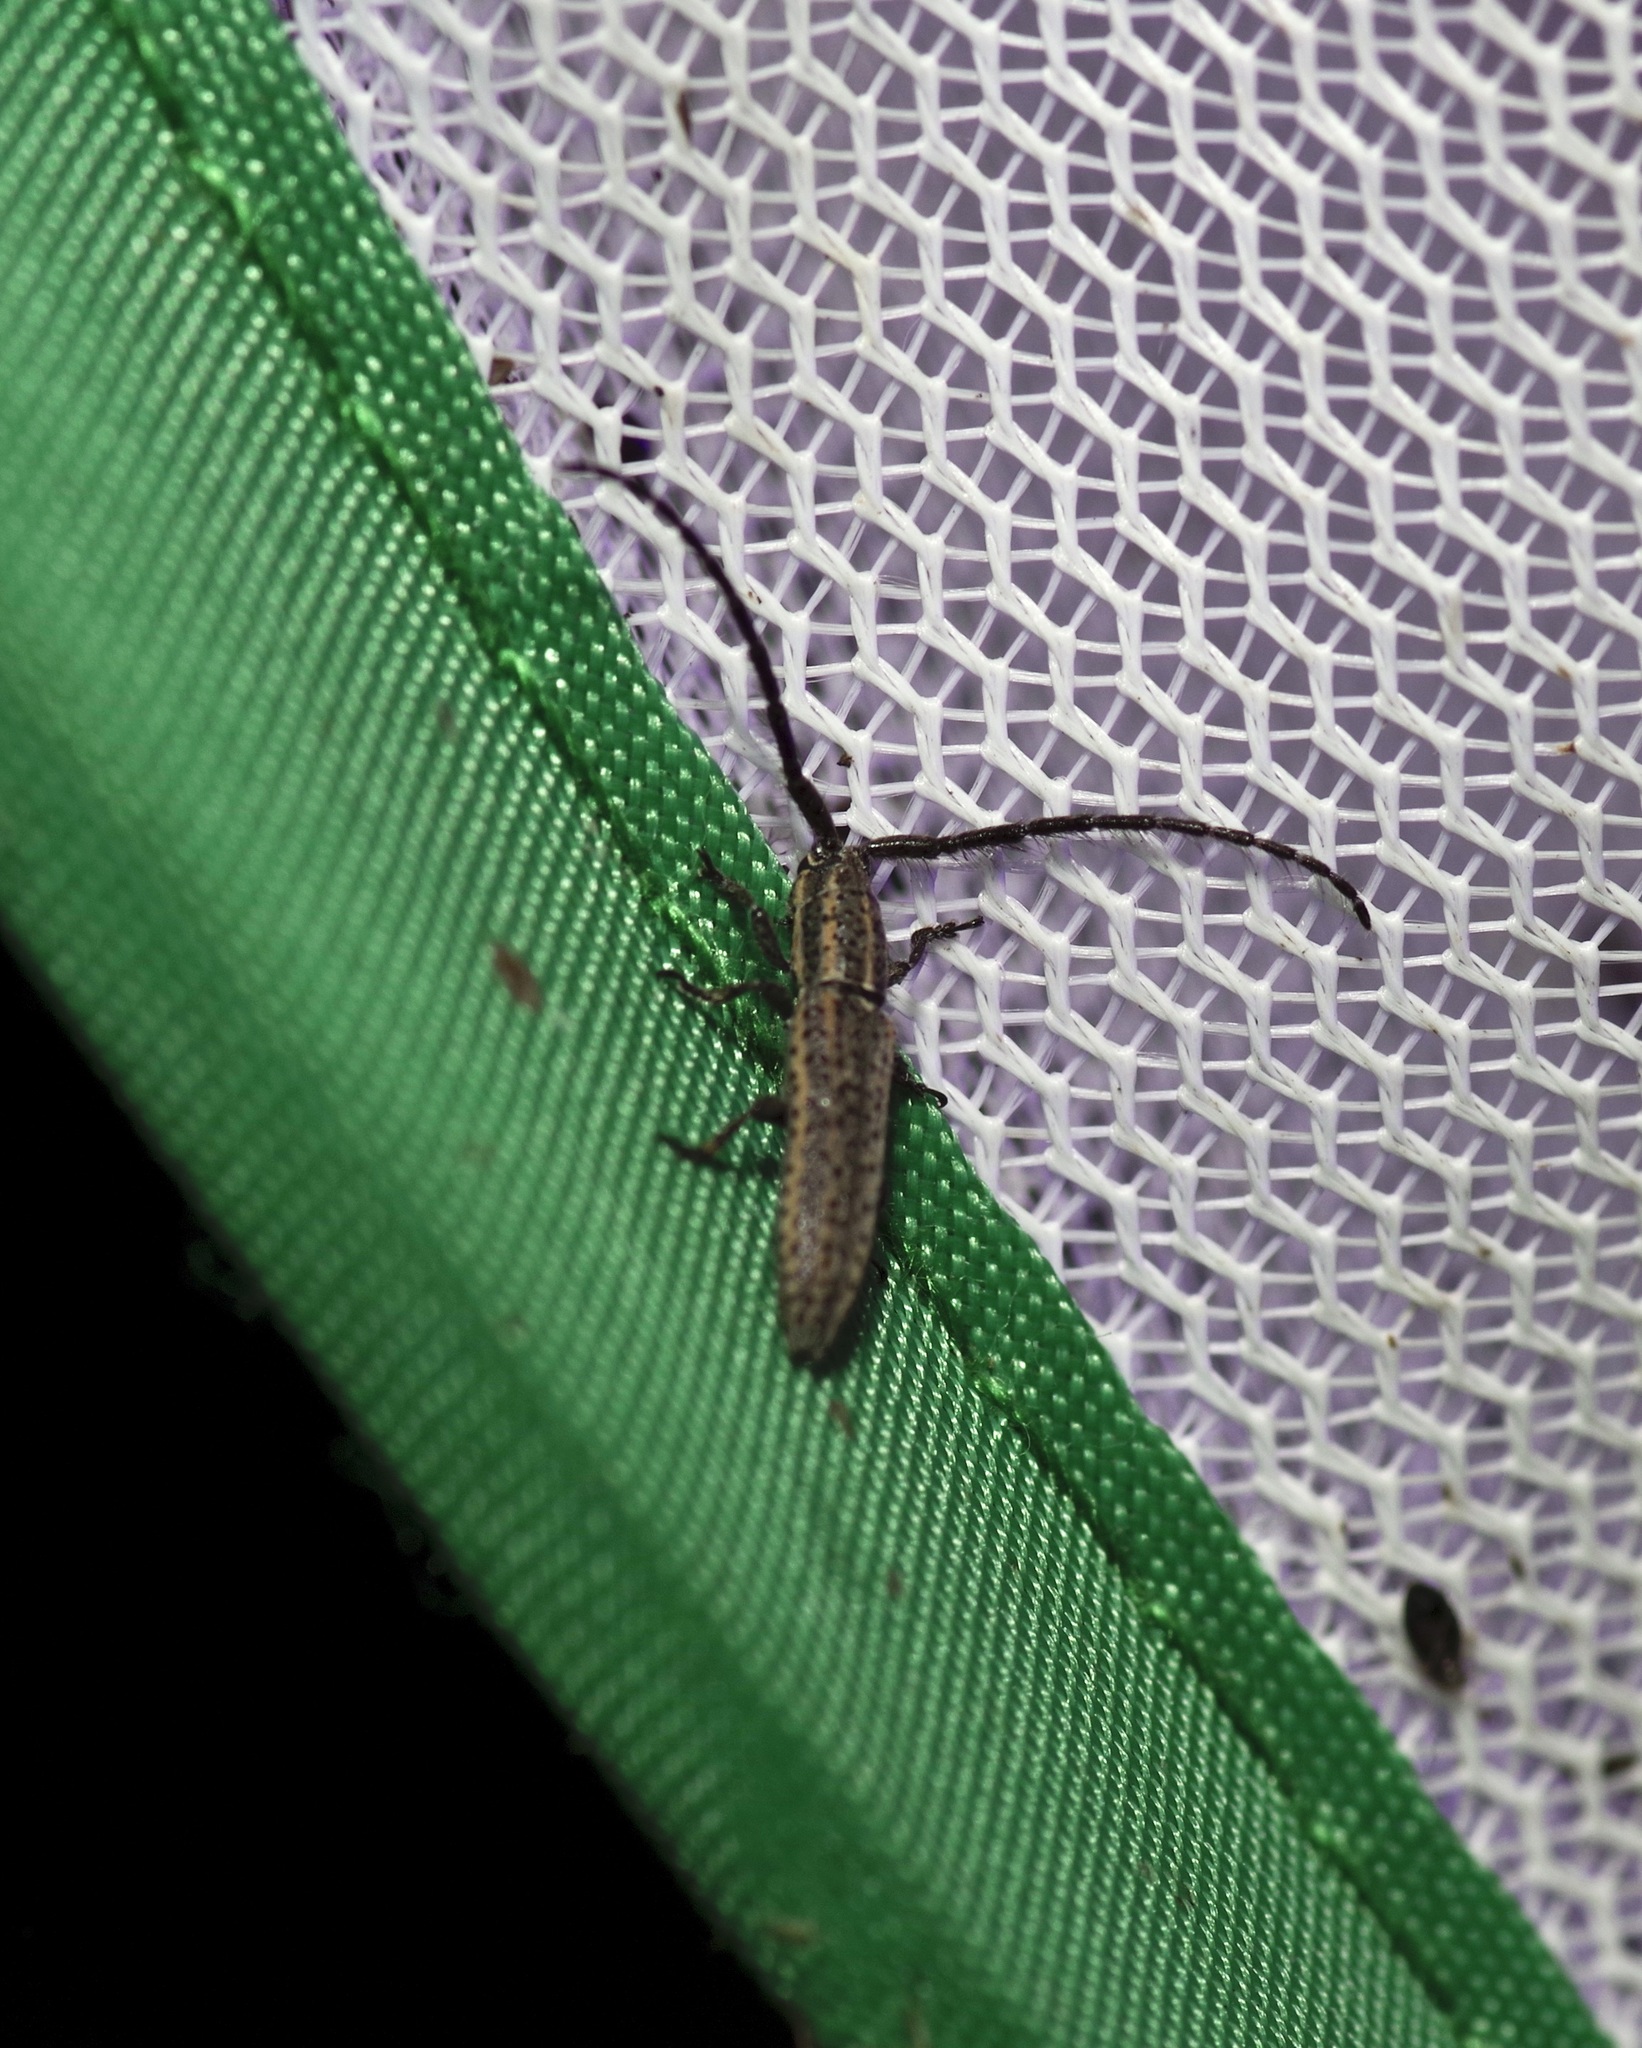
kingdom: Animalia
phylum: Arthropoda
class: Insecta
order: Coleoptera
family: Cerambycidae
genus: Dorcasta
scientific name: Dorcasta cinerea
